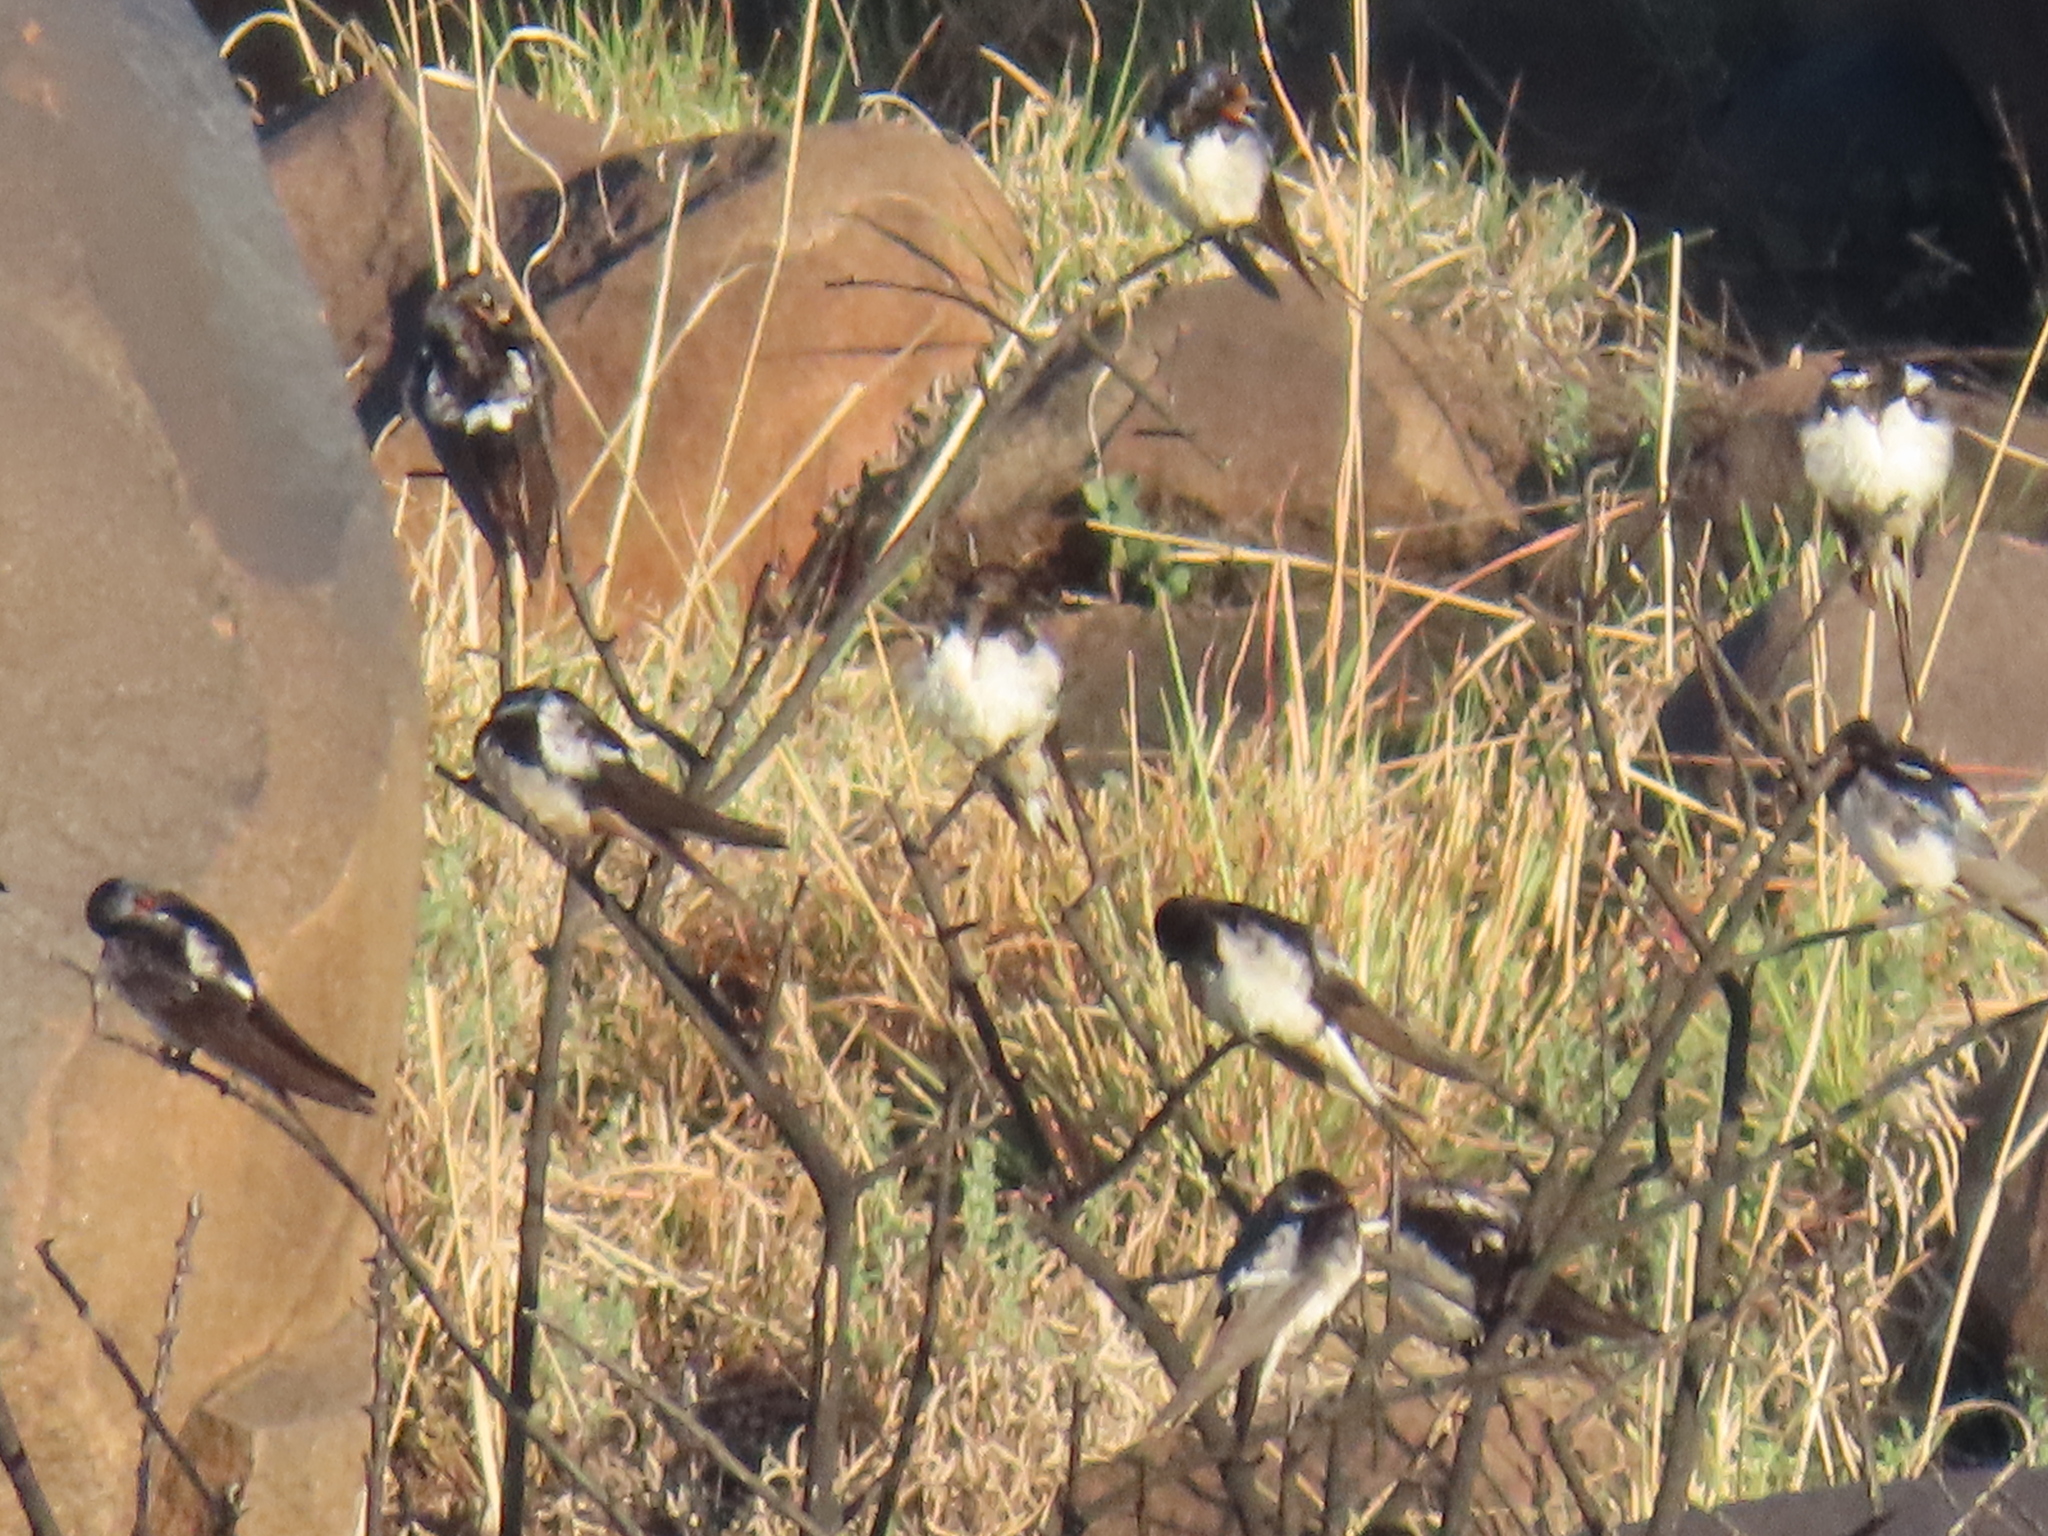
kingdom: Animalia
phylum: Chordata
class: Aves
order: Passeriformes
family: Hirundinidae
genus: Hirundo
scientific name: Hirundo rustica
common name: Barn swallow
